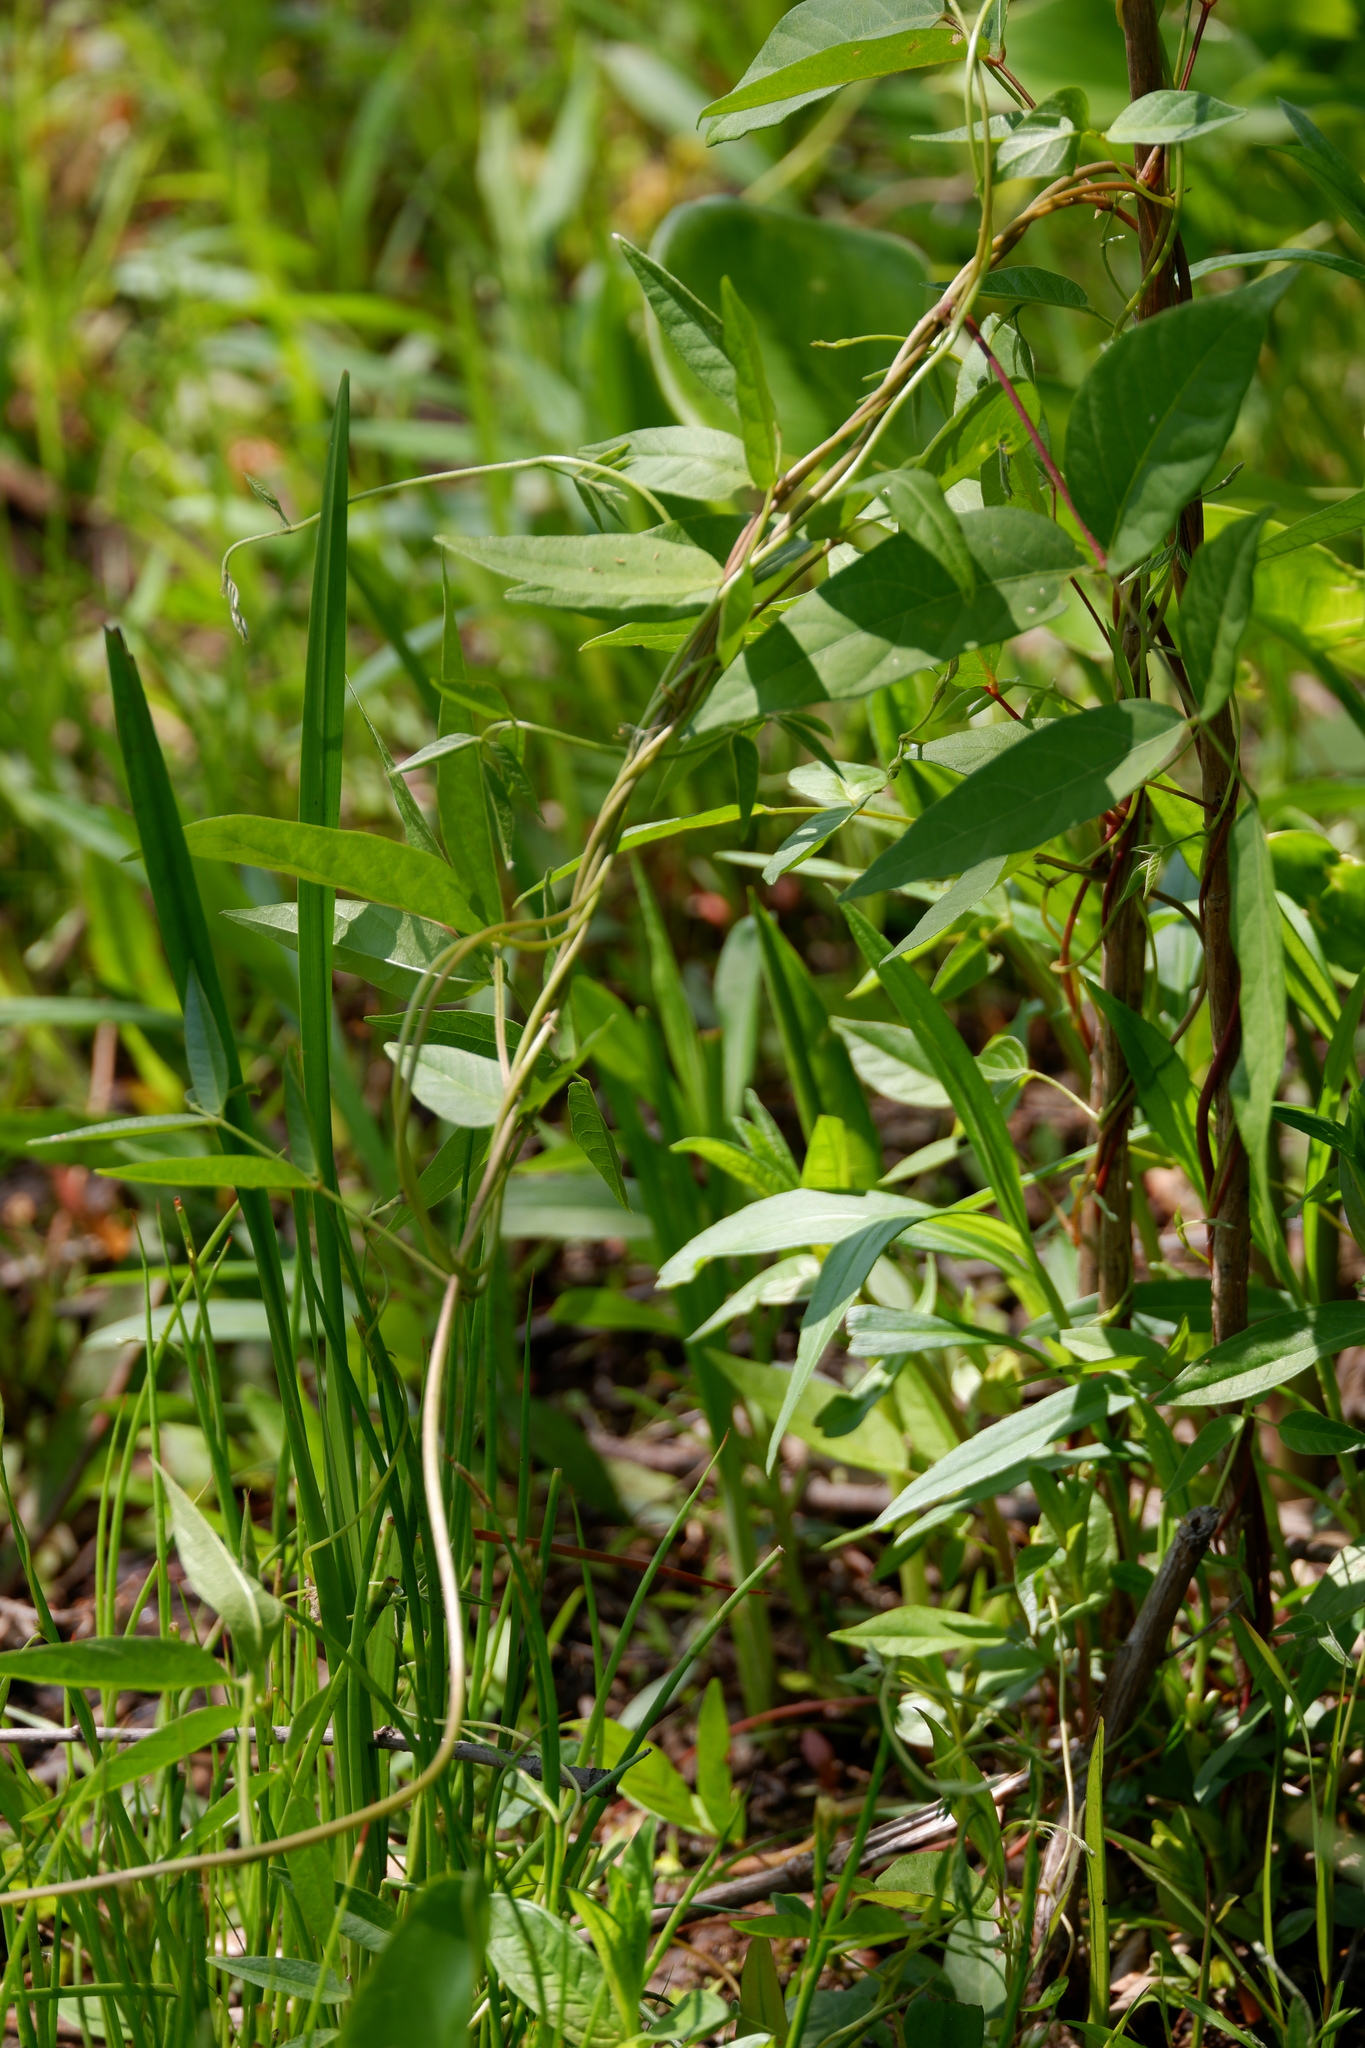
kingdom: Plantae
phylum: Tracheophyta
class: Magnoliopsida
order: Fabales
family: Fabaceae
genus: Apios
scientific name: Apios americana
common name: American potato-bean
